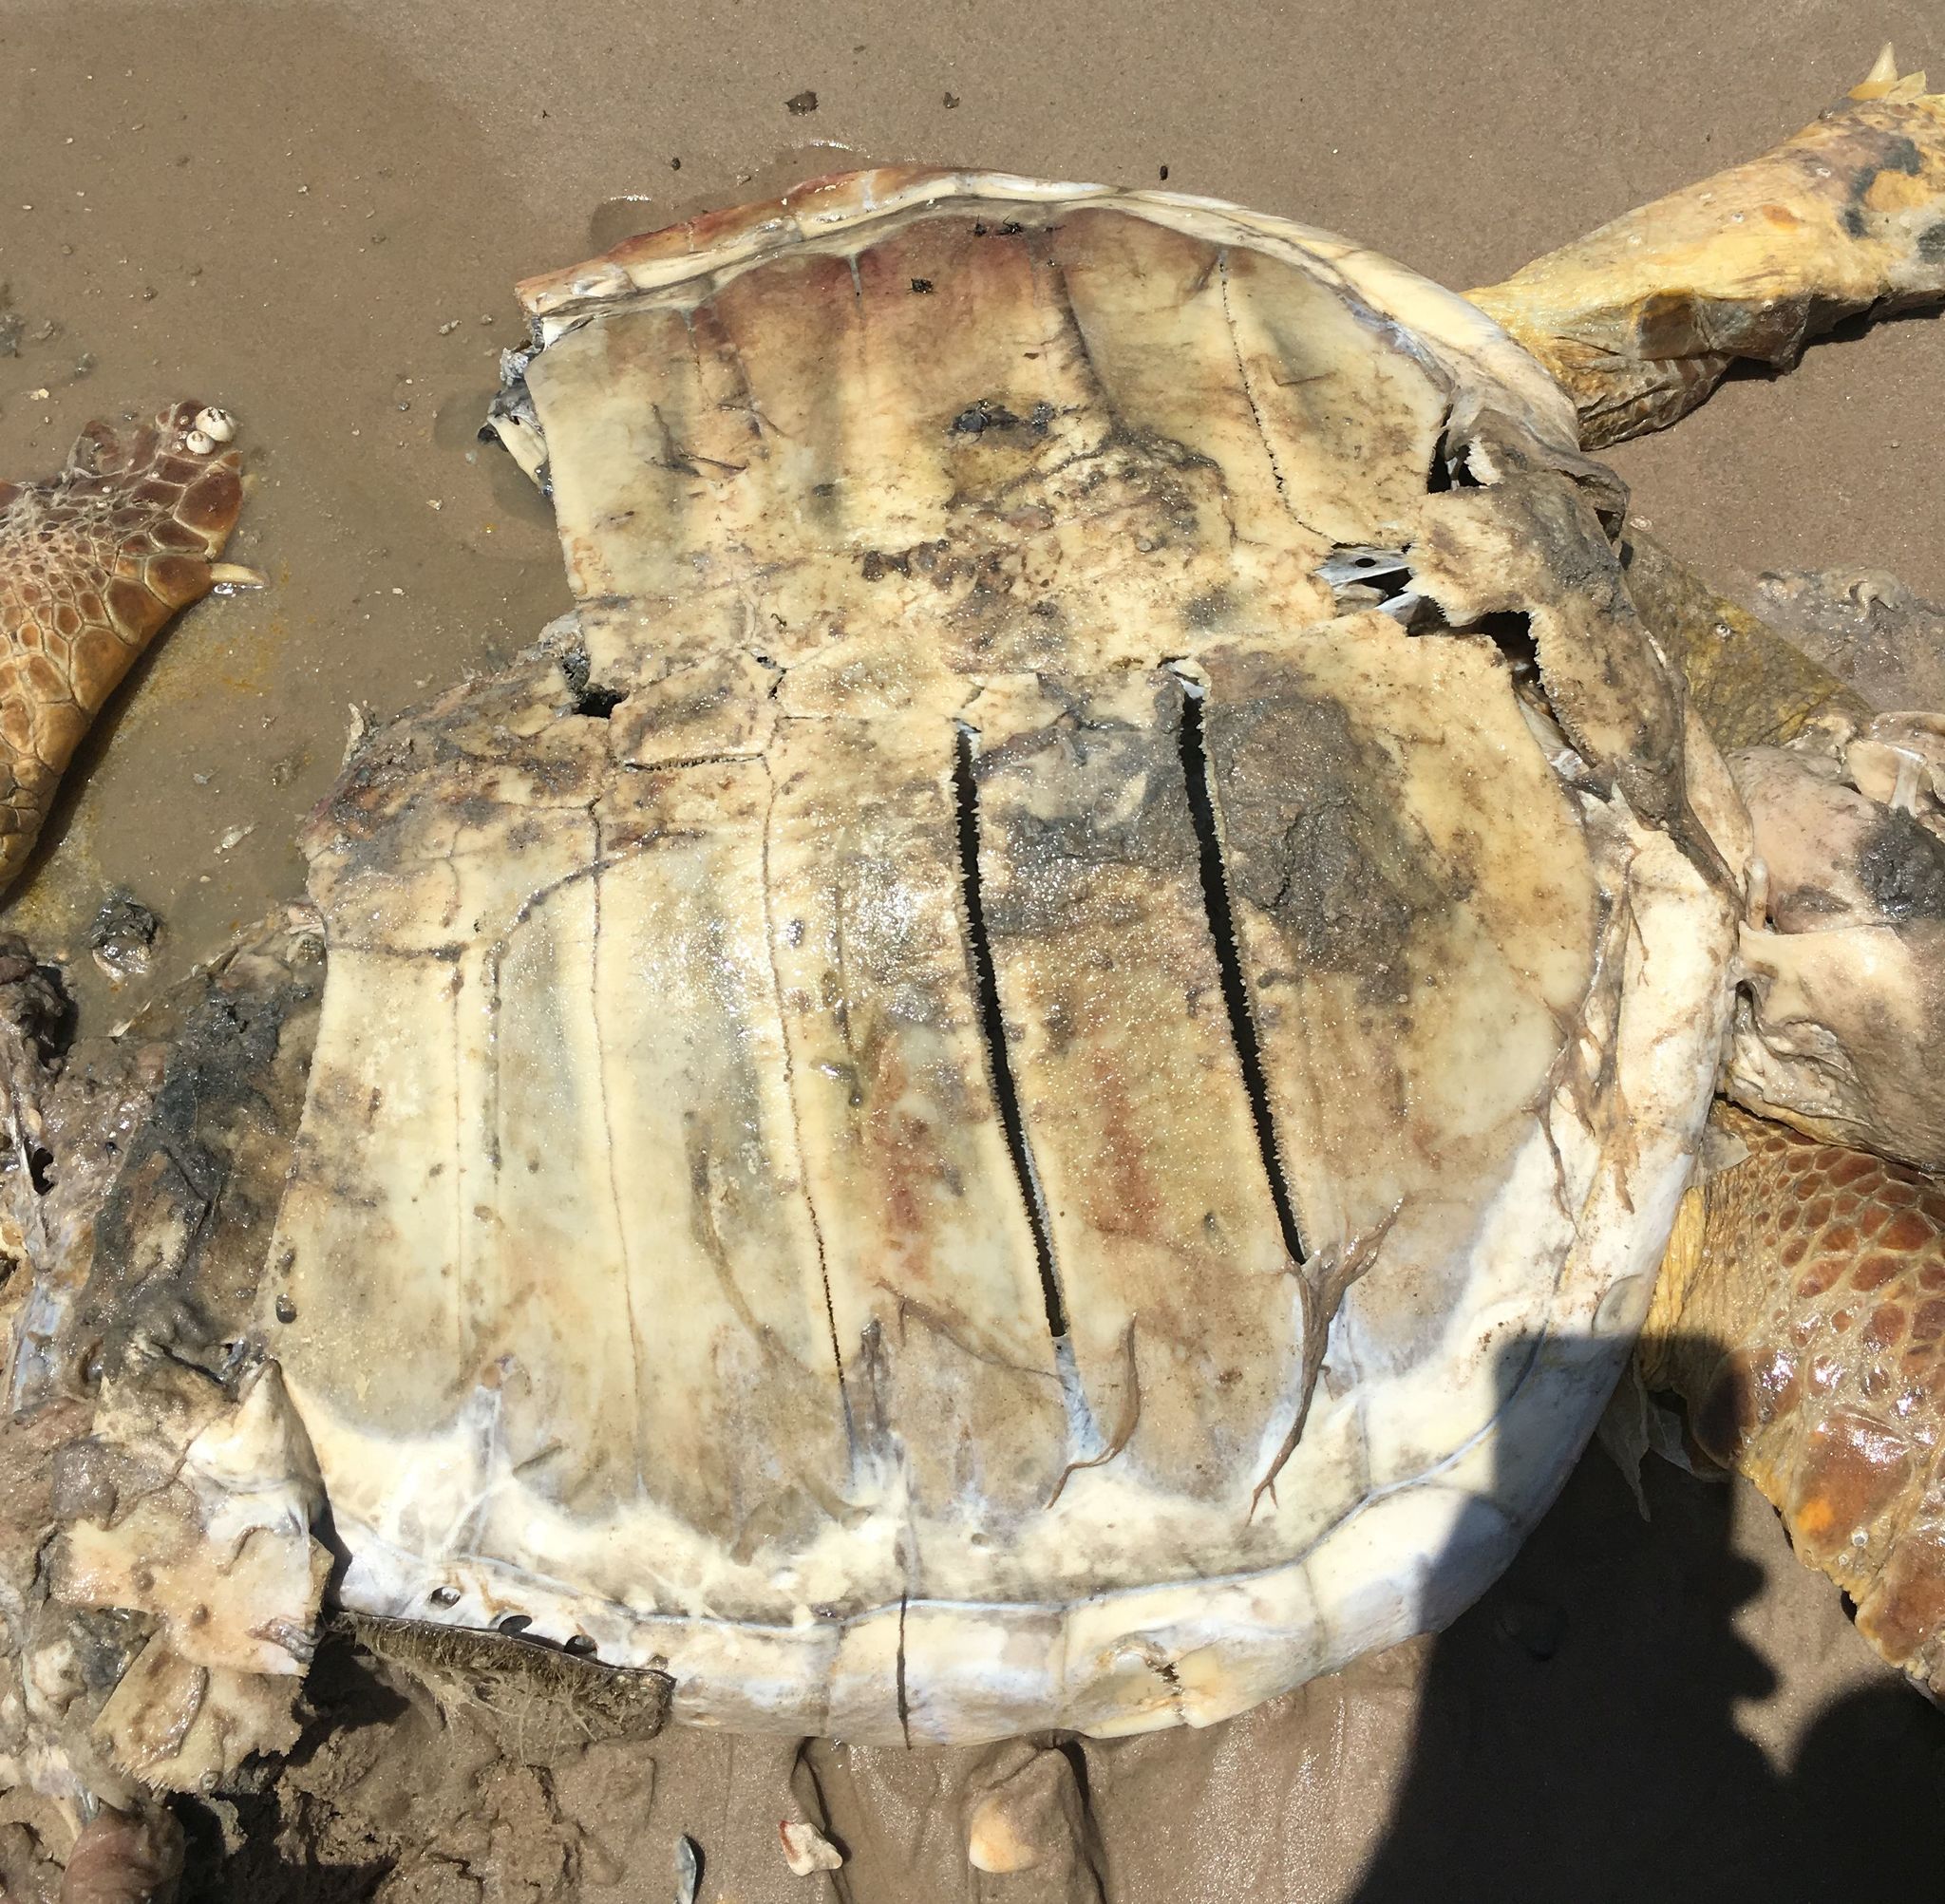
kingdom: Animalia
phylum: Chordata
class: Testudines
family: Cheloniidae
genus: Caretta
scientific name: Caretta caretta
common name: Loggerhead sea turtle
